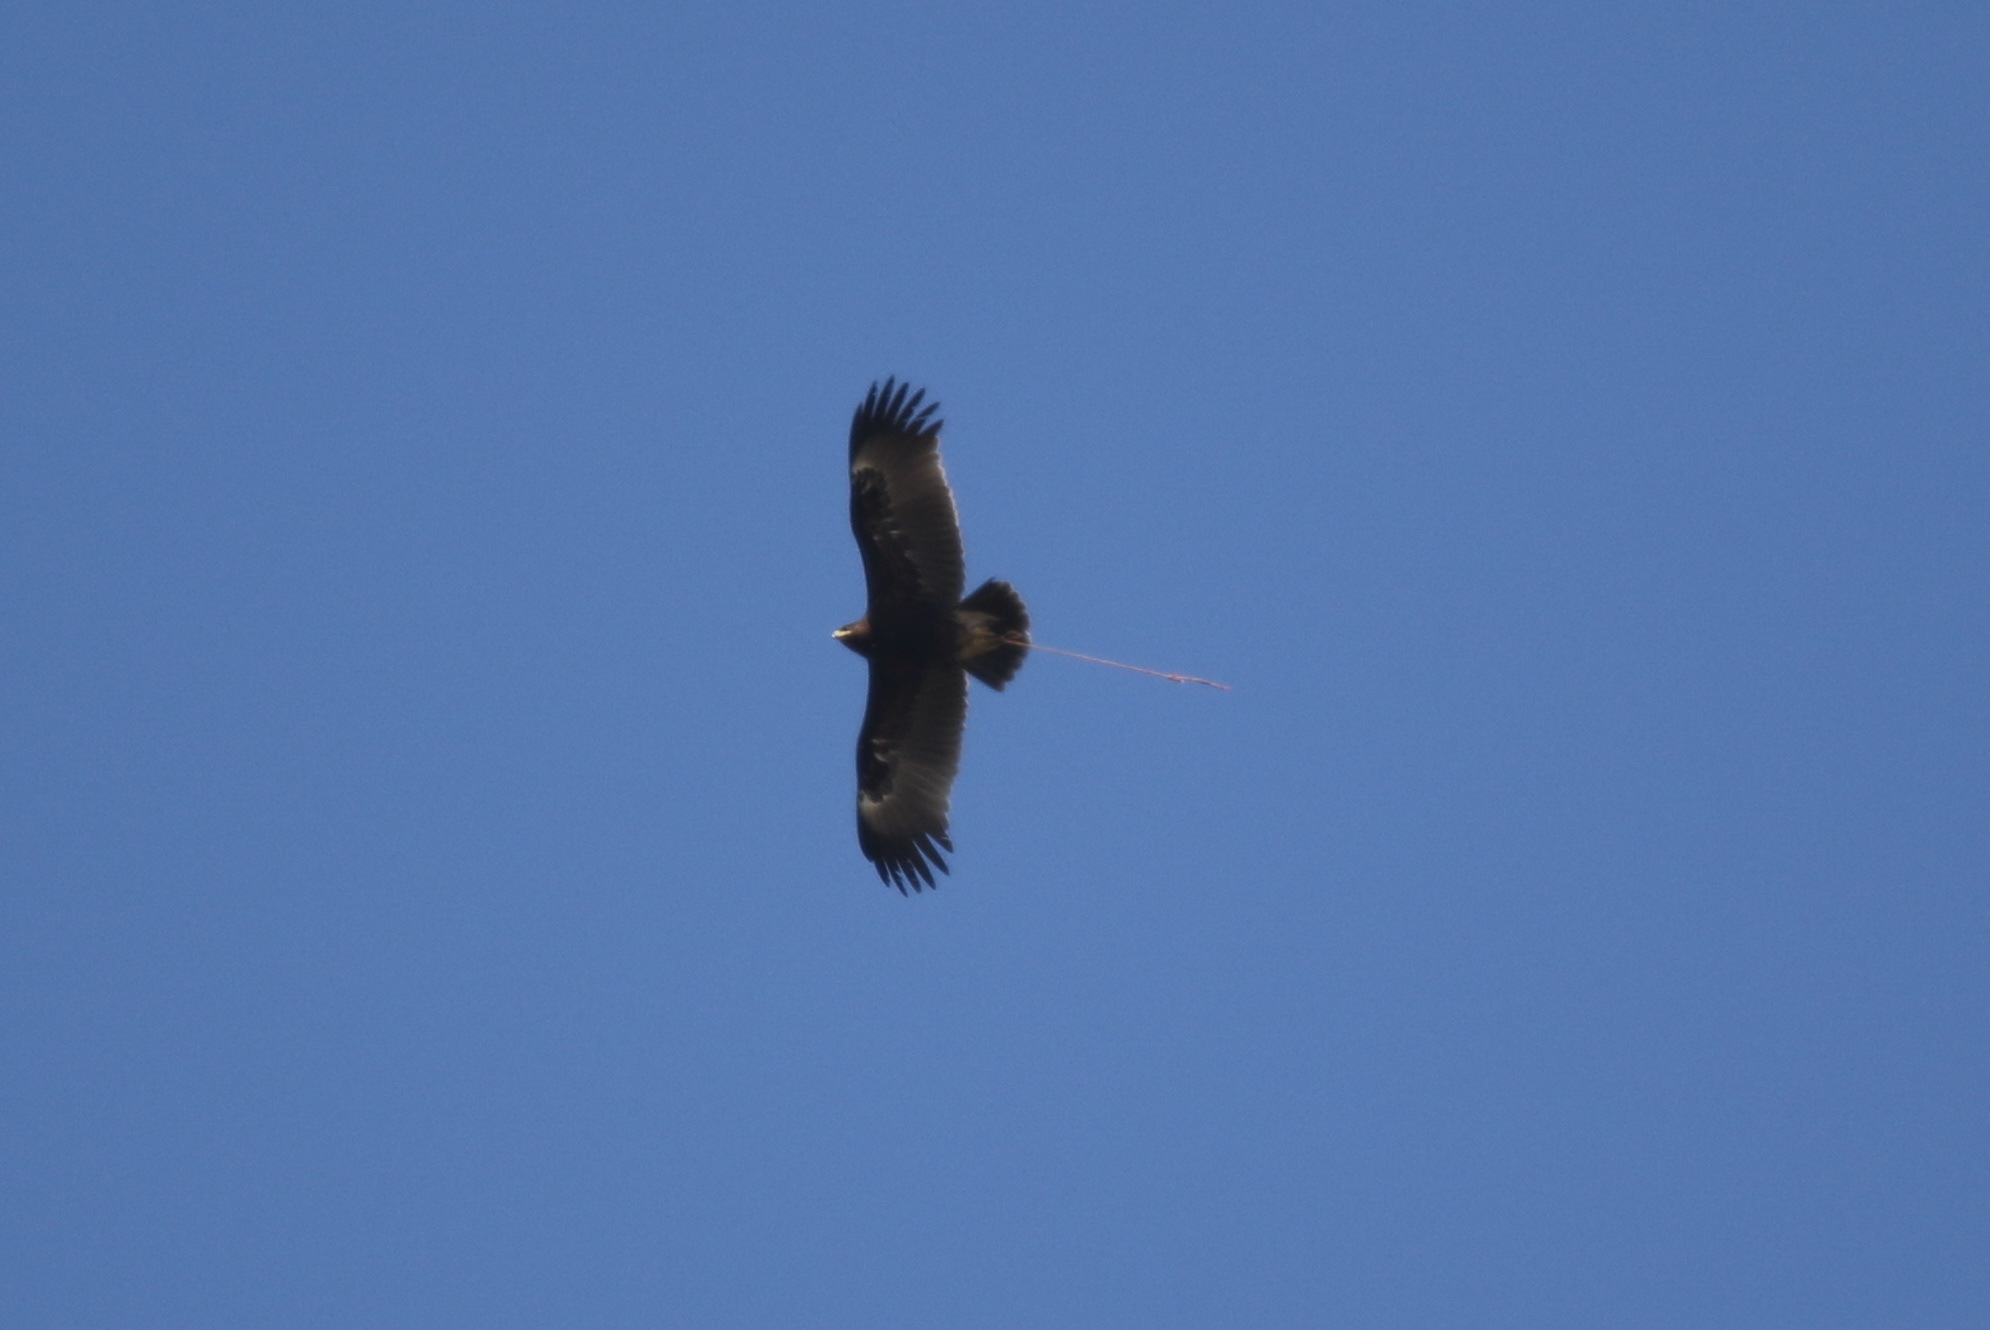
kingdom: Animalia
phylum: Chordata
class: Aves
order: Accipitriformes
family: Accipitridae
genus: Aquila
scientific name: Aquila clanga
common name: Greater spotted eagle
